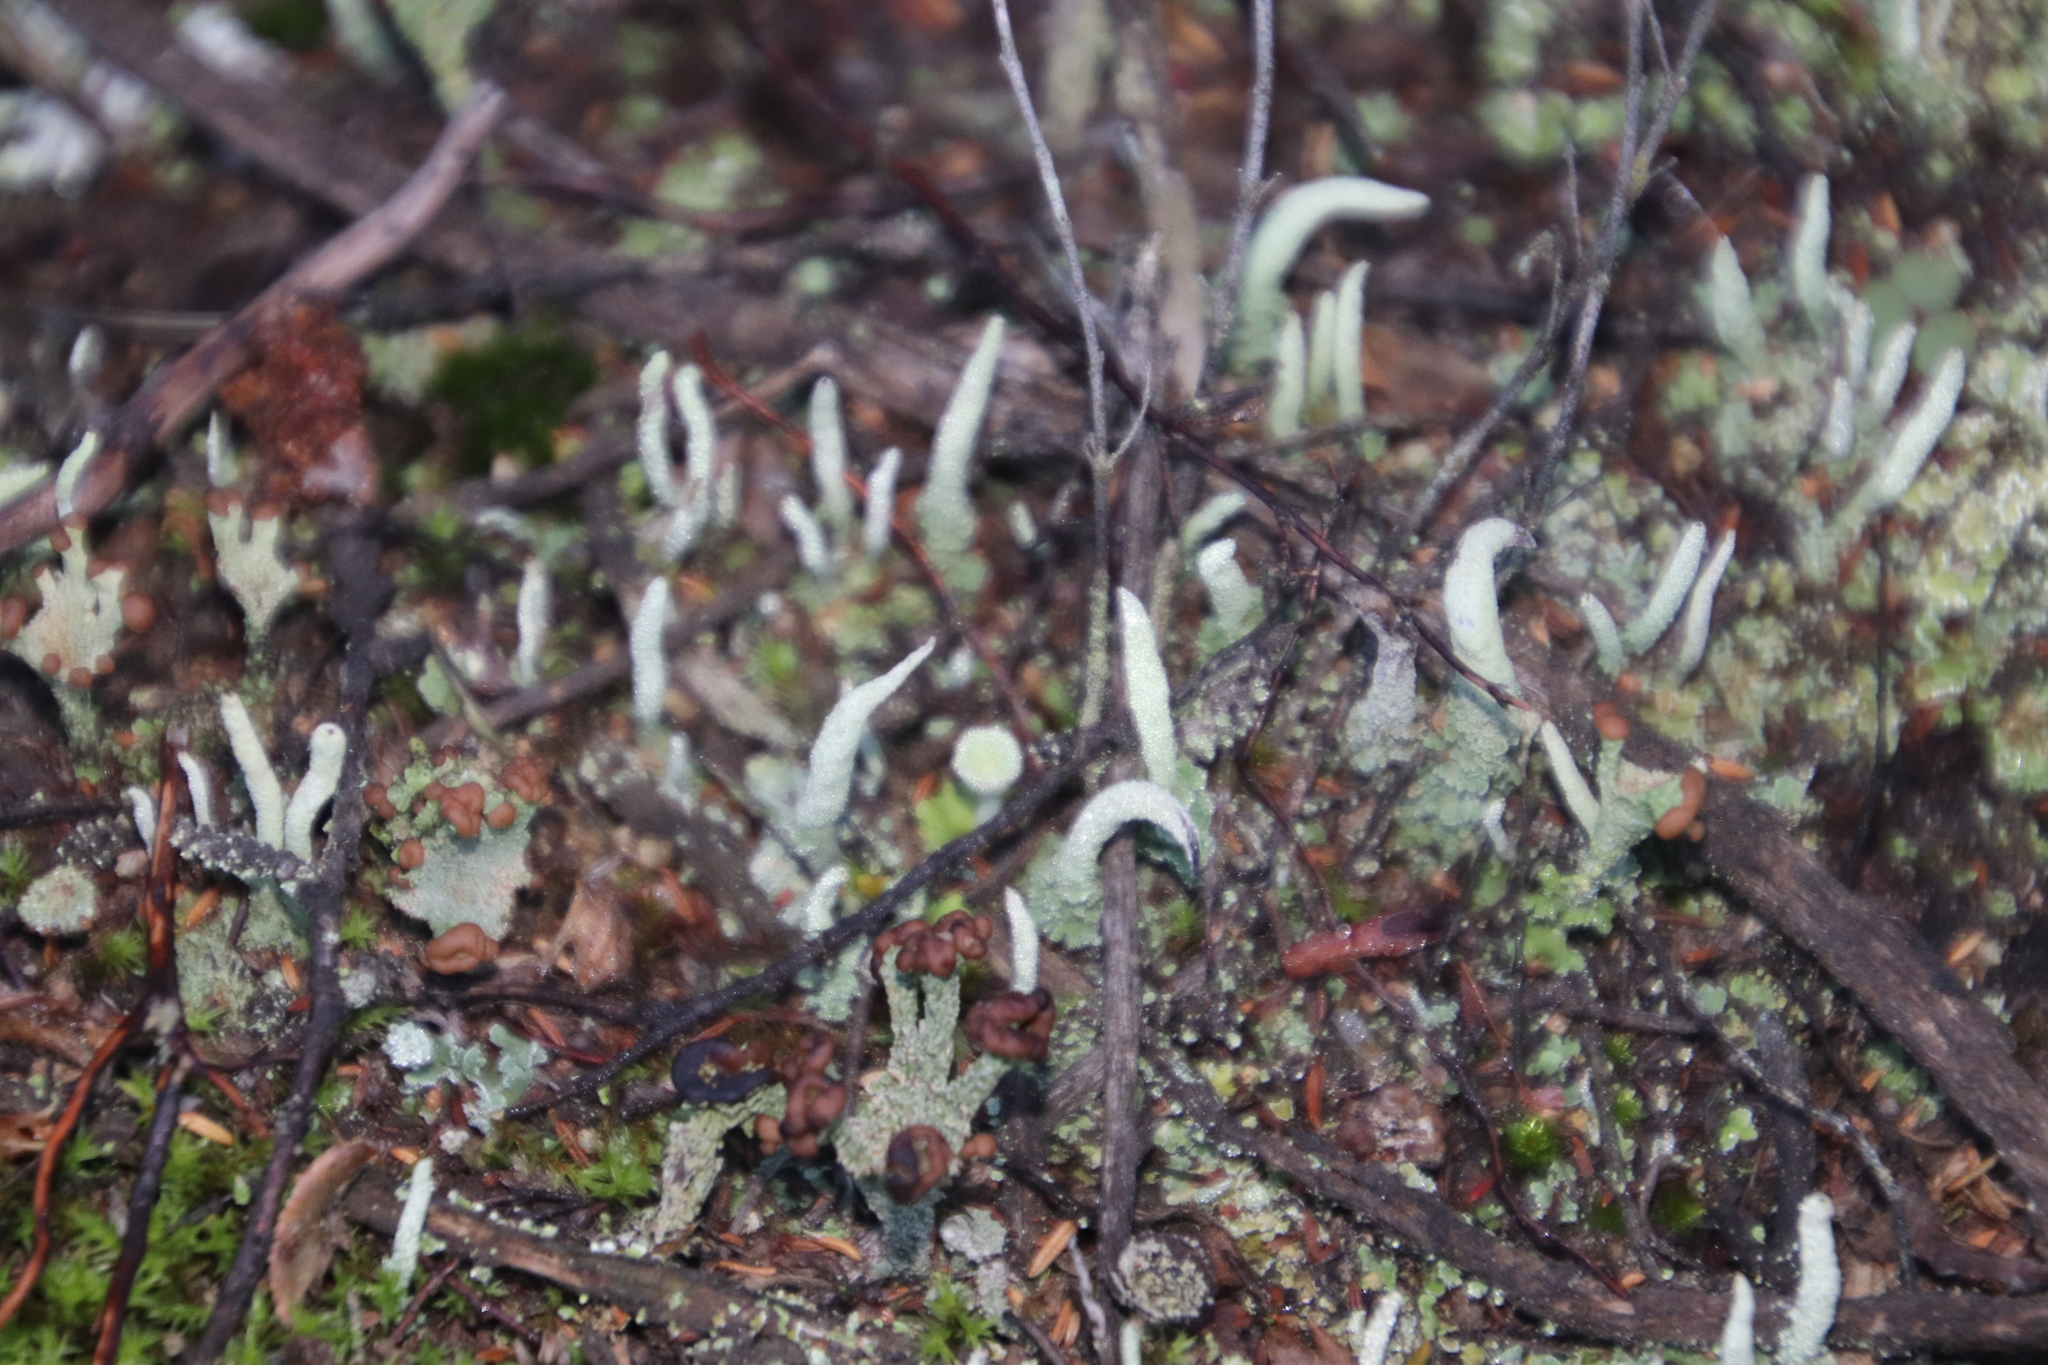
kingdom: Fungi
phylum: Ascomycota
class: Lecanoromycetes
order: Lecanorales
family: Cladoniaceae
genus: Cladonia
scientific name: Cladonia ochrochlora
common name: Smooth-footed powderhorn
